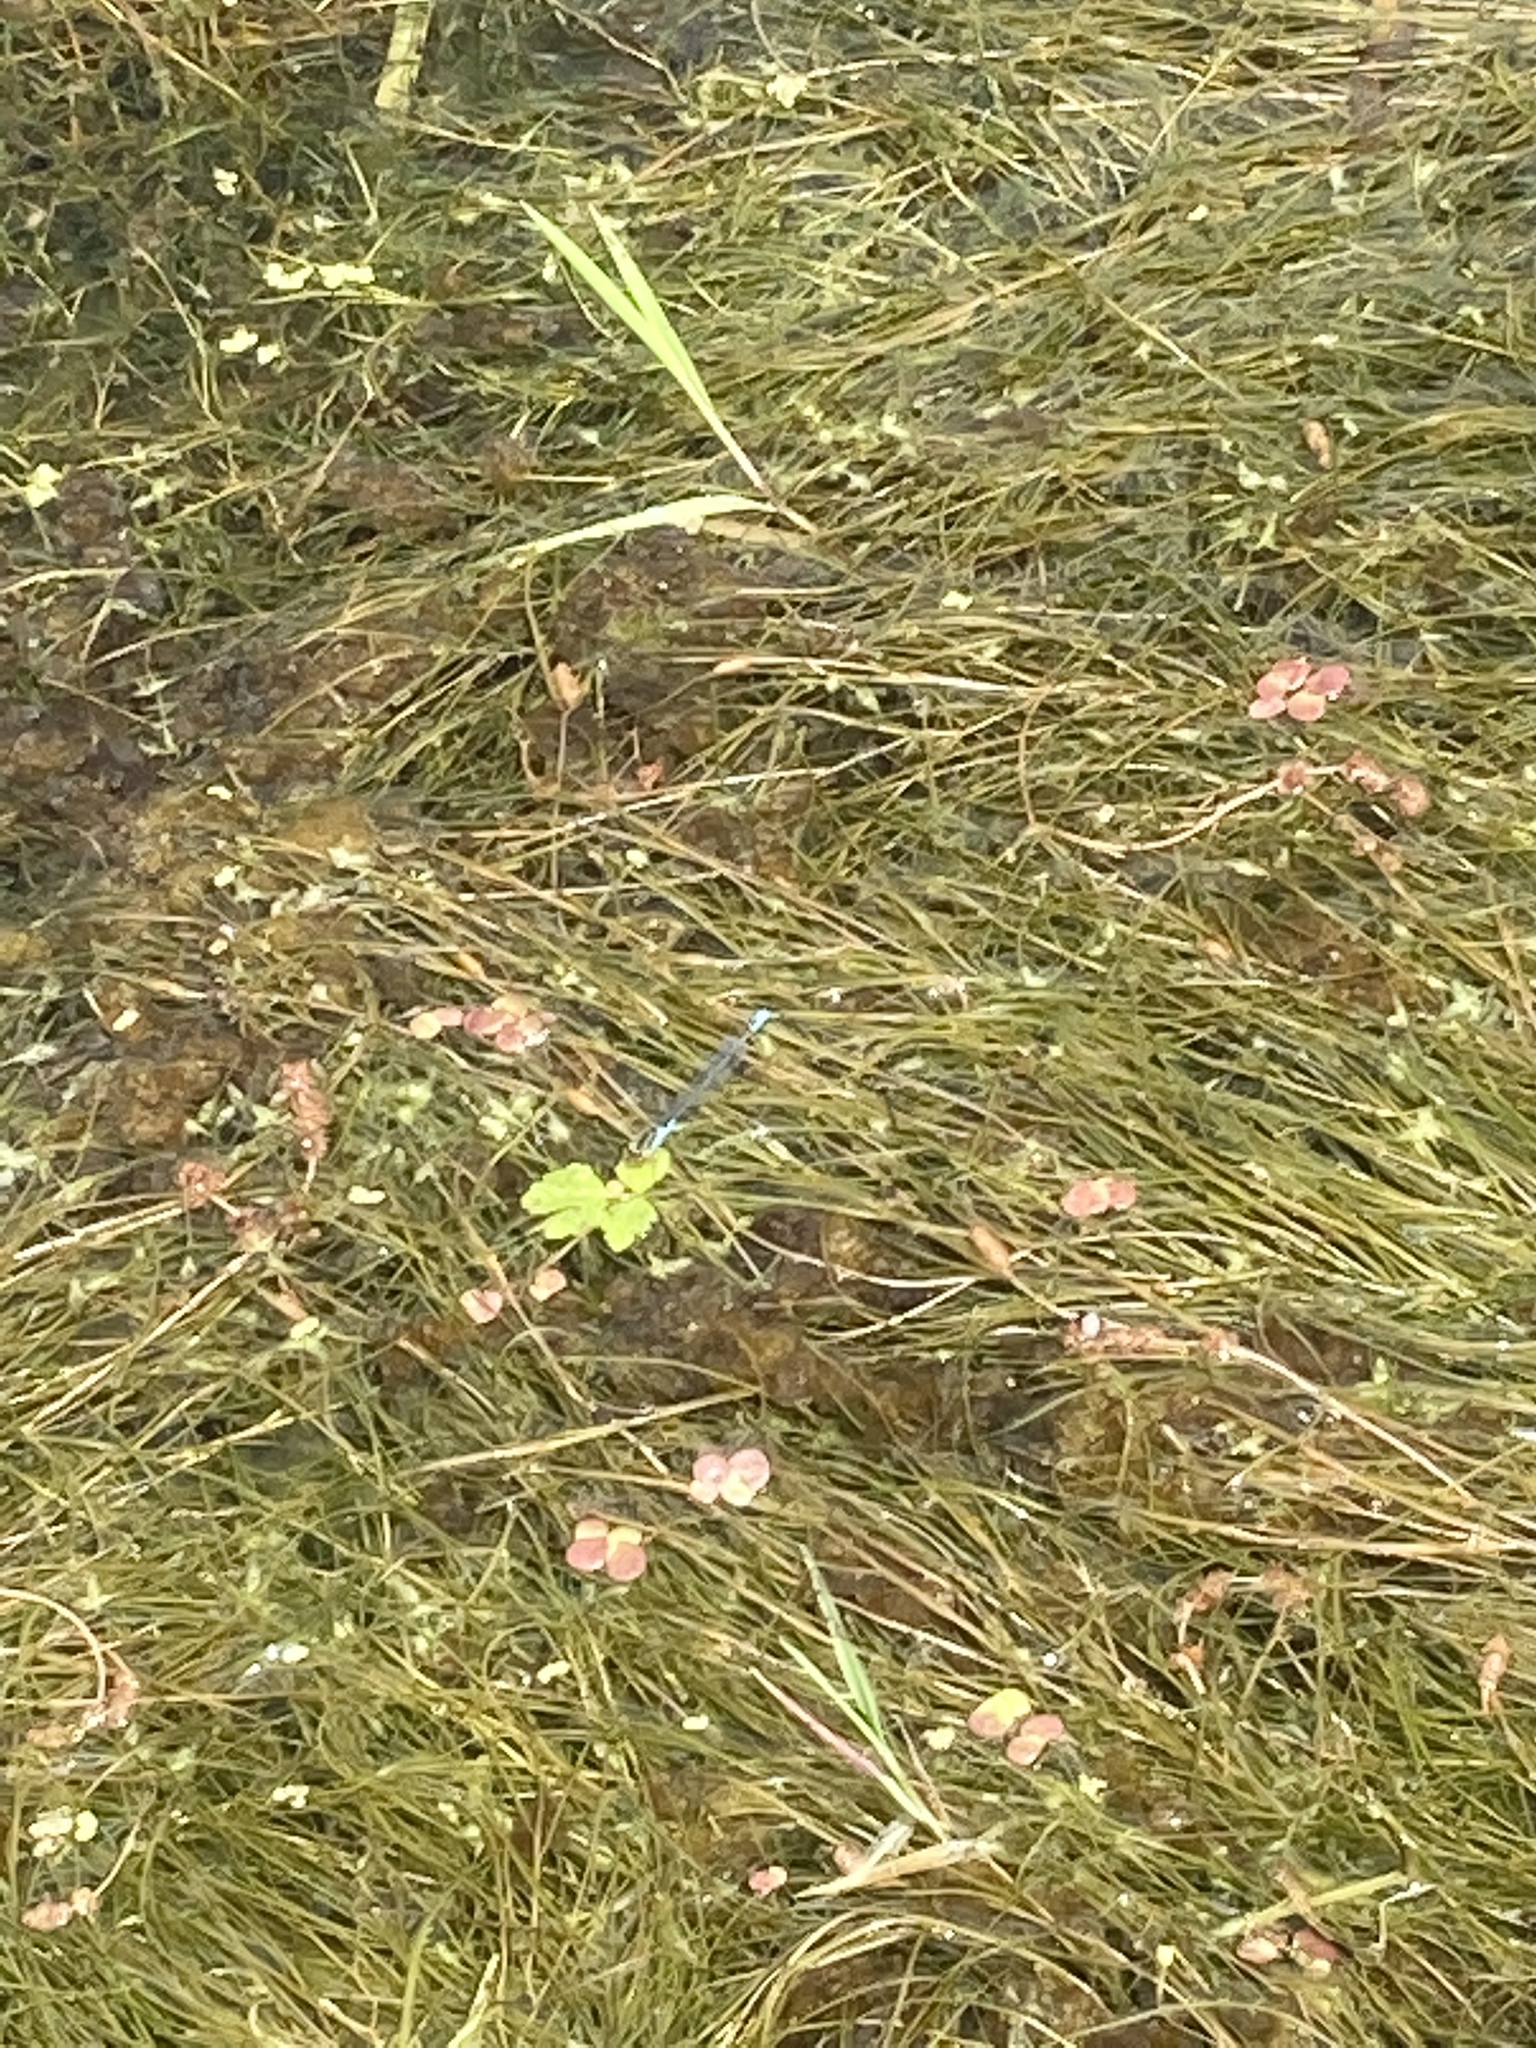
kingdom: Animalia
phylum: Arthropoda
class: Insecta
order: Odonata
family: Coenagrionidae
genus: Erythromma
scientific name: Erythromma viridulum
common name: Small red-eyed damselfly
